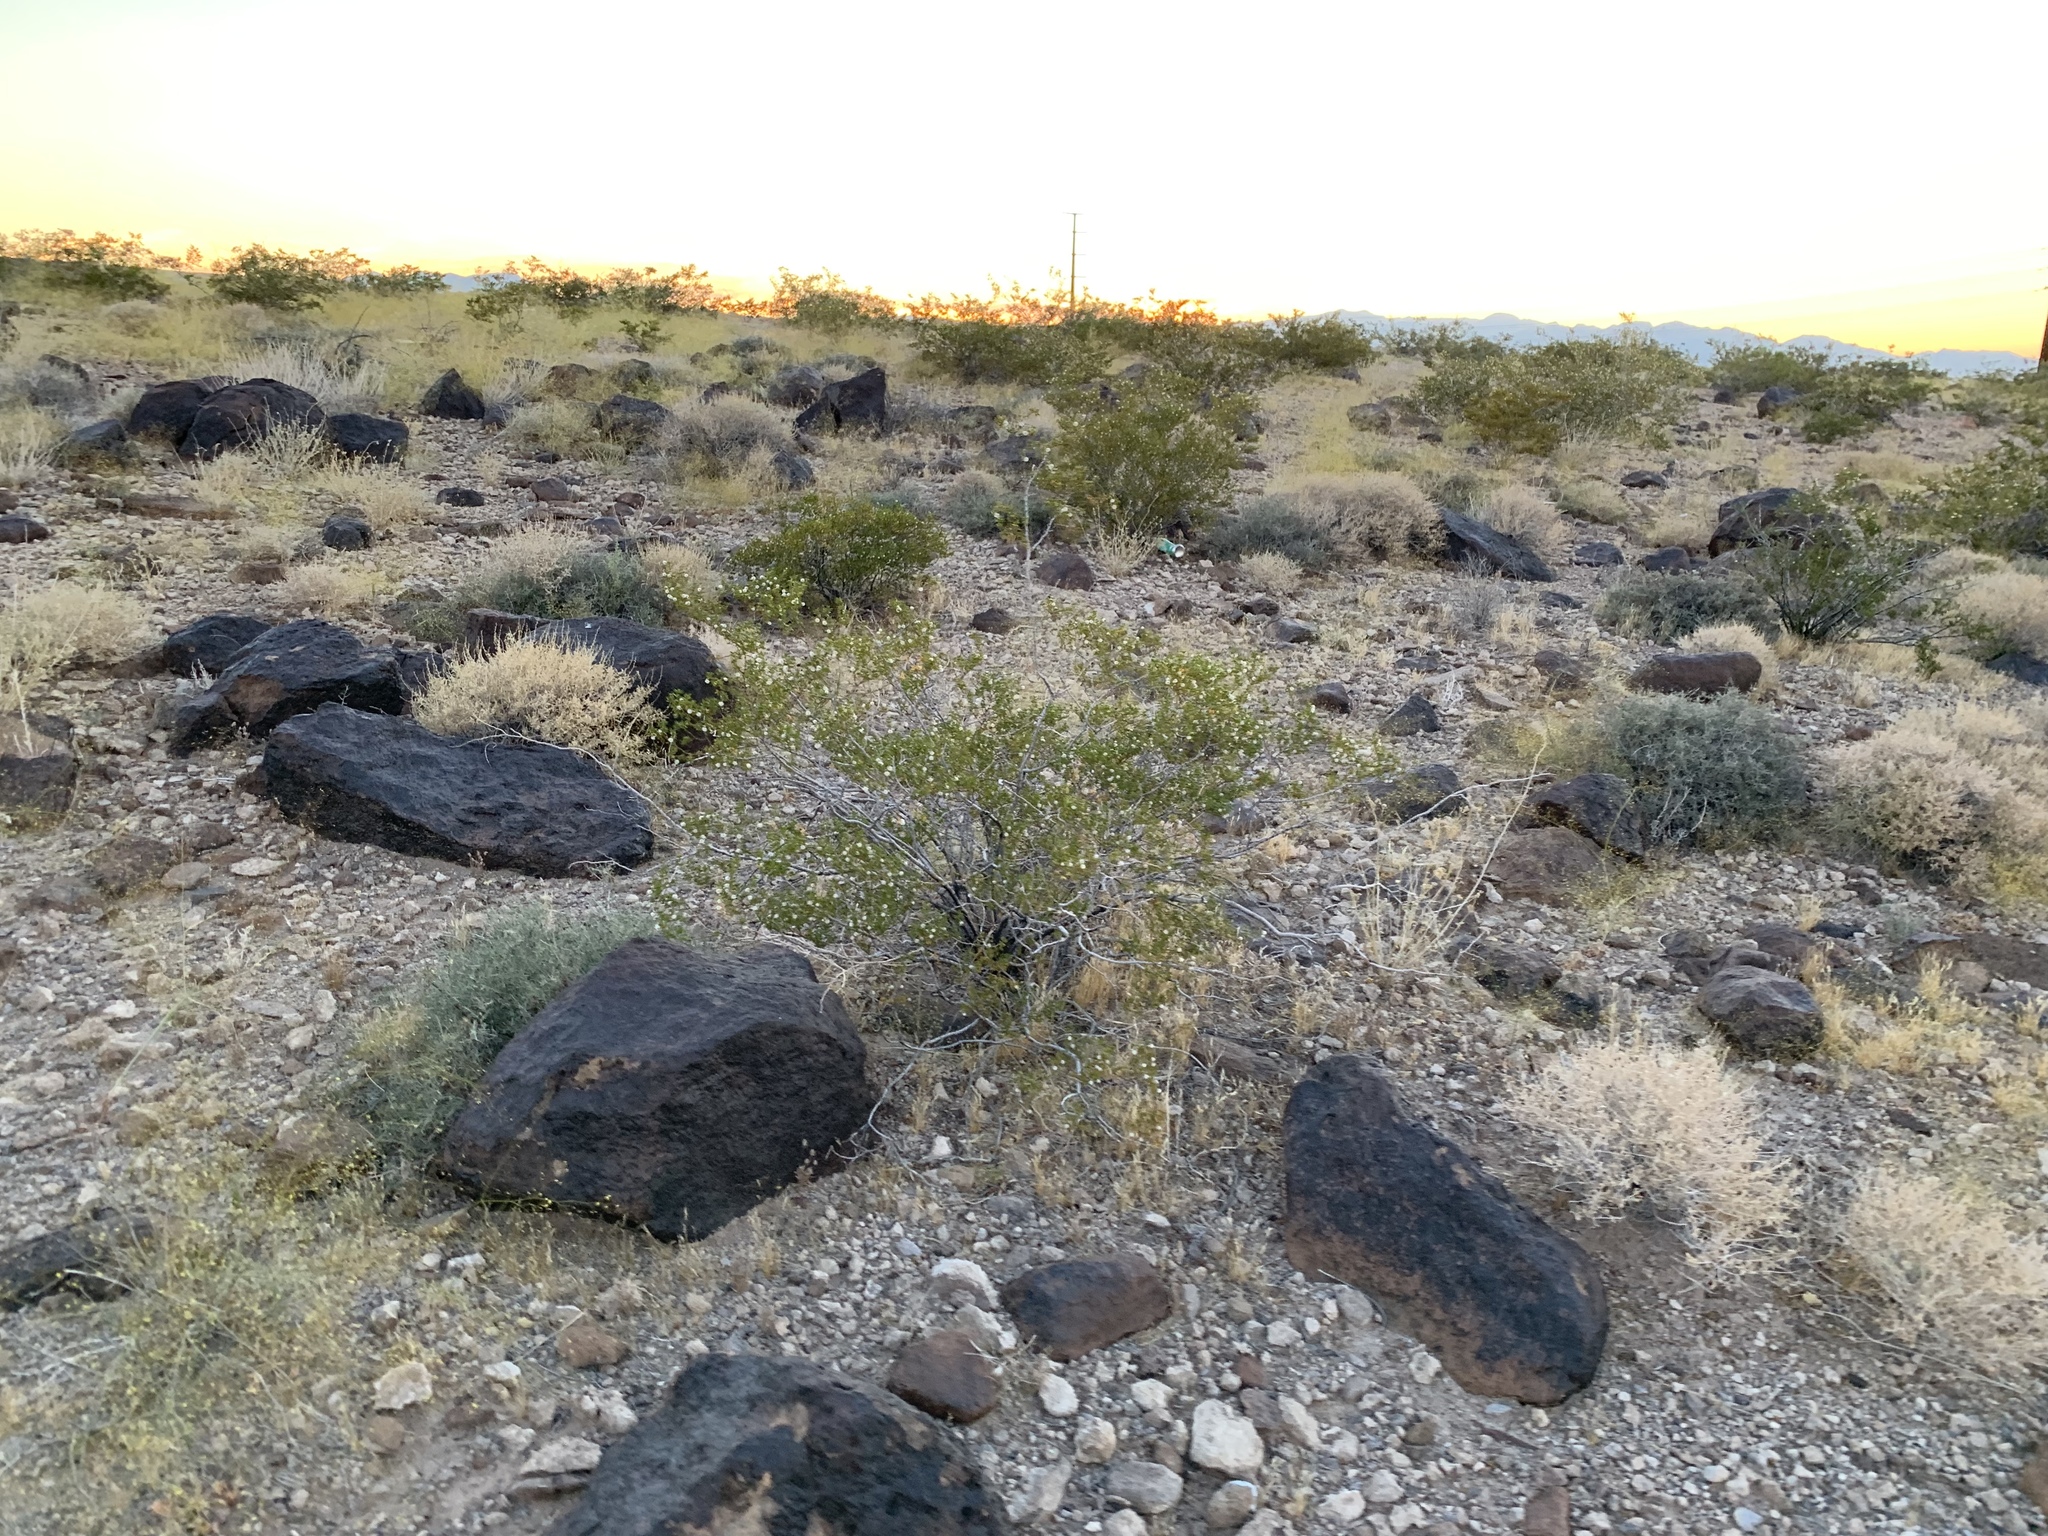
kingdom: Plantae
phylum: Tracheophyta
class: Magnoliopsida
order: Zygophyllales
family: Zygophyllaceae
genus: Larrea
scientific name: Larrea tridentata
